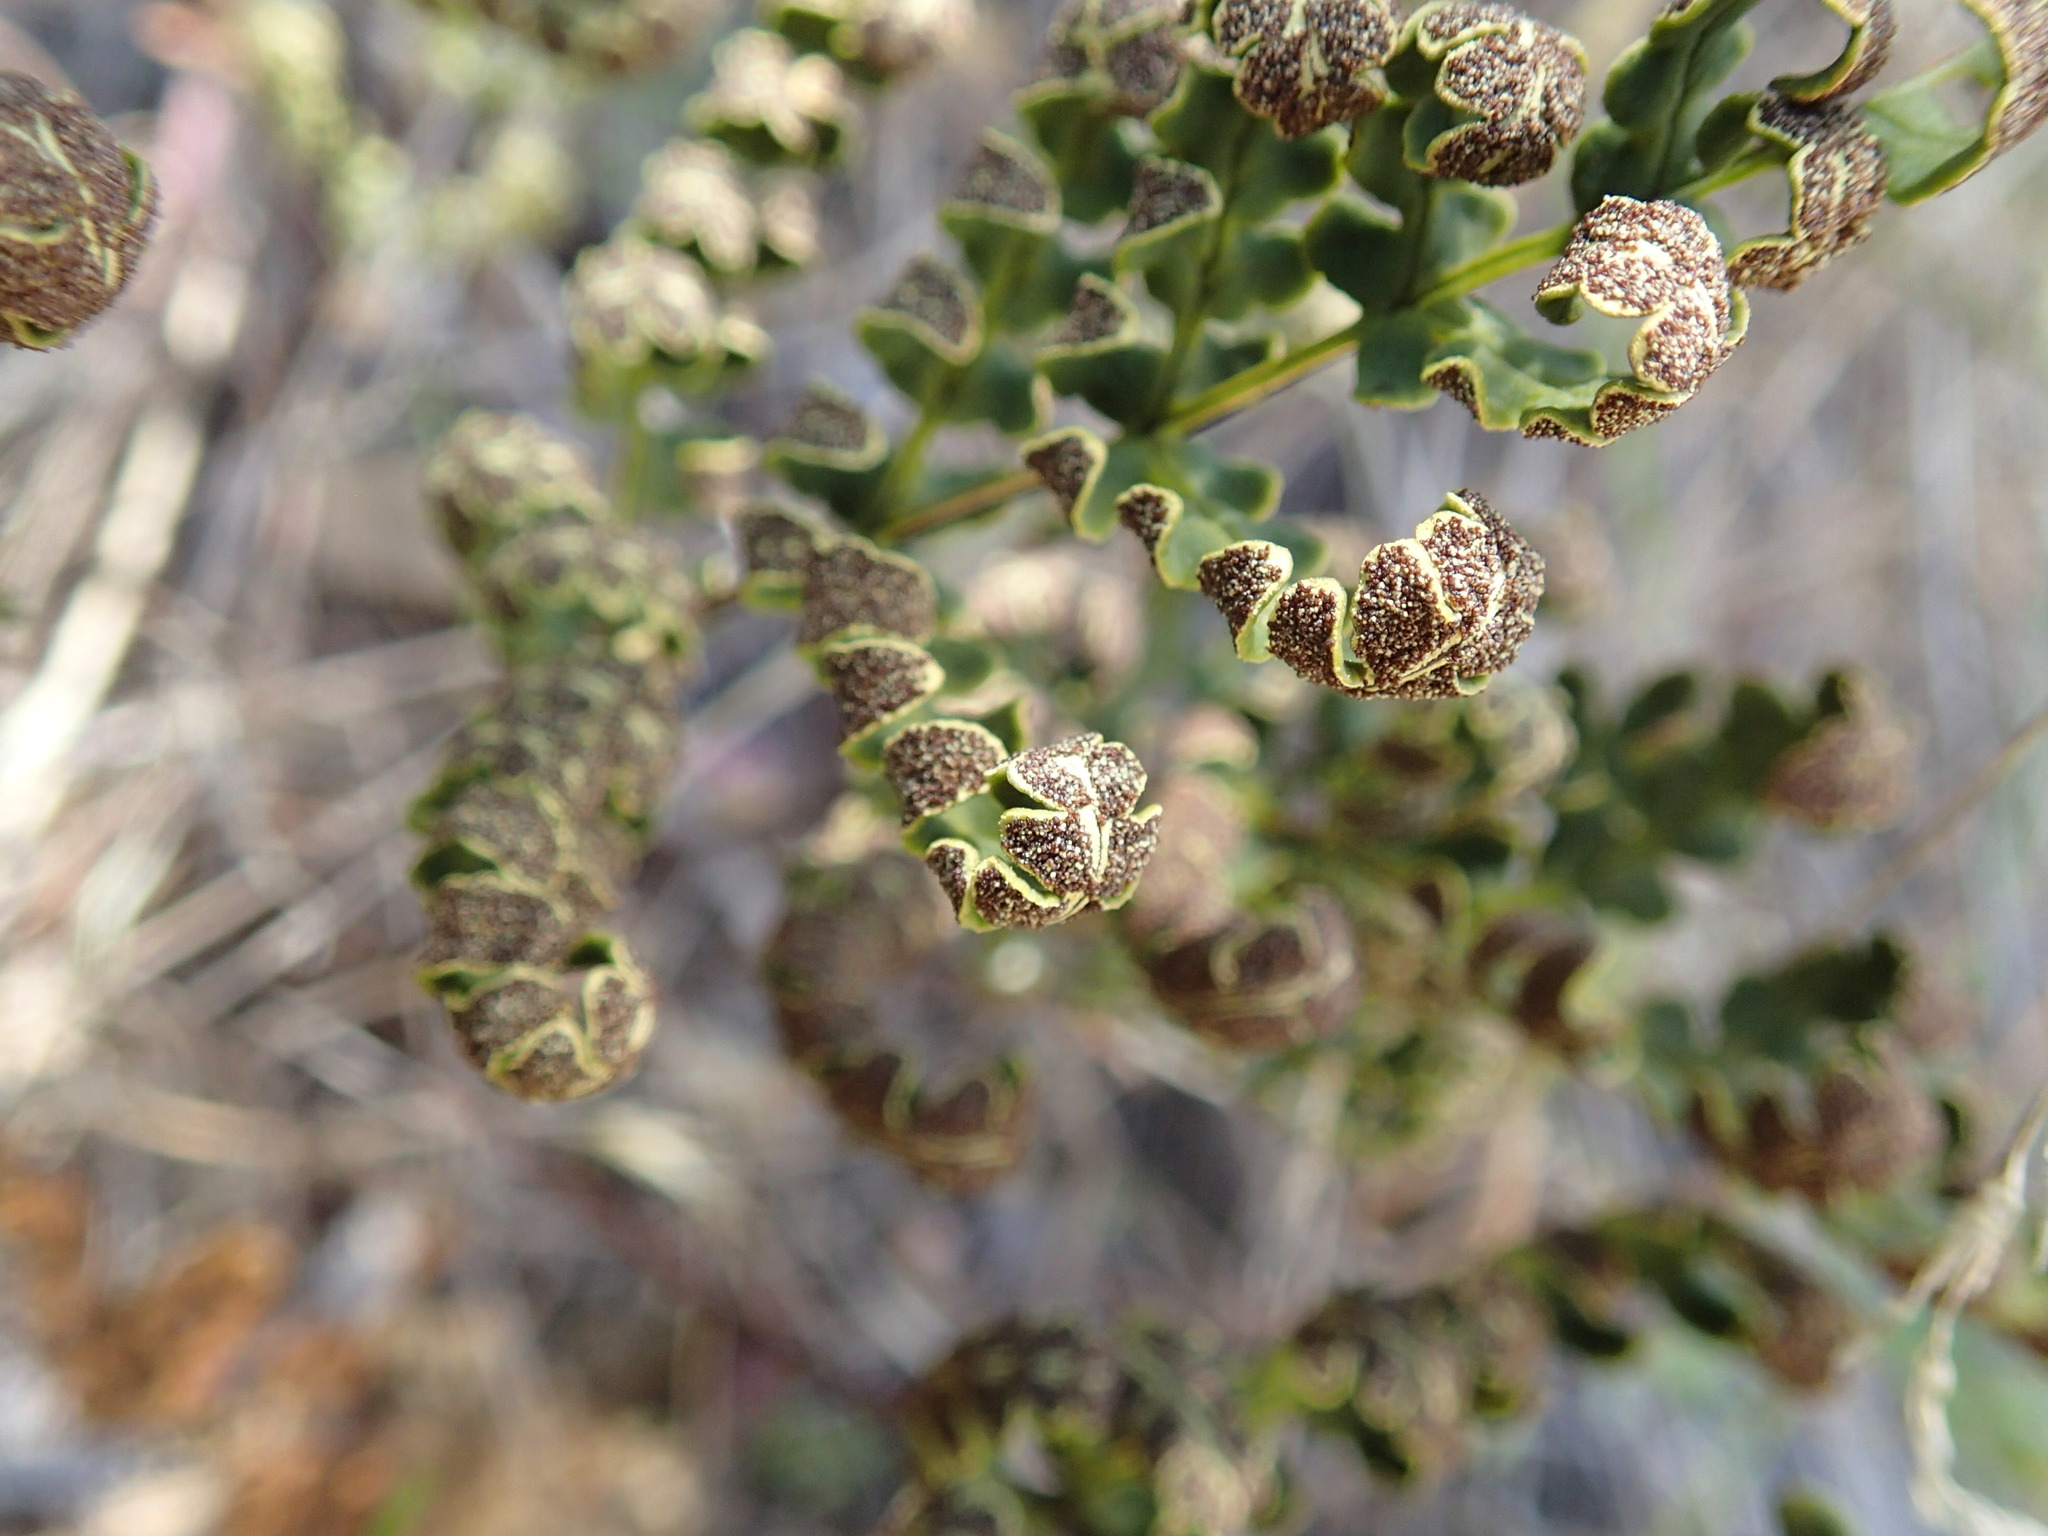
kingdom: Plantae
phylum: Tracheophyta
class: Polypodiopsida
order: Polypodiales
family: Pteridaceae
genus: Pentagramma
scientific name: Pentagramma triangularis
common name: Gold fern
